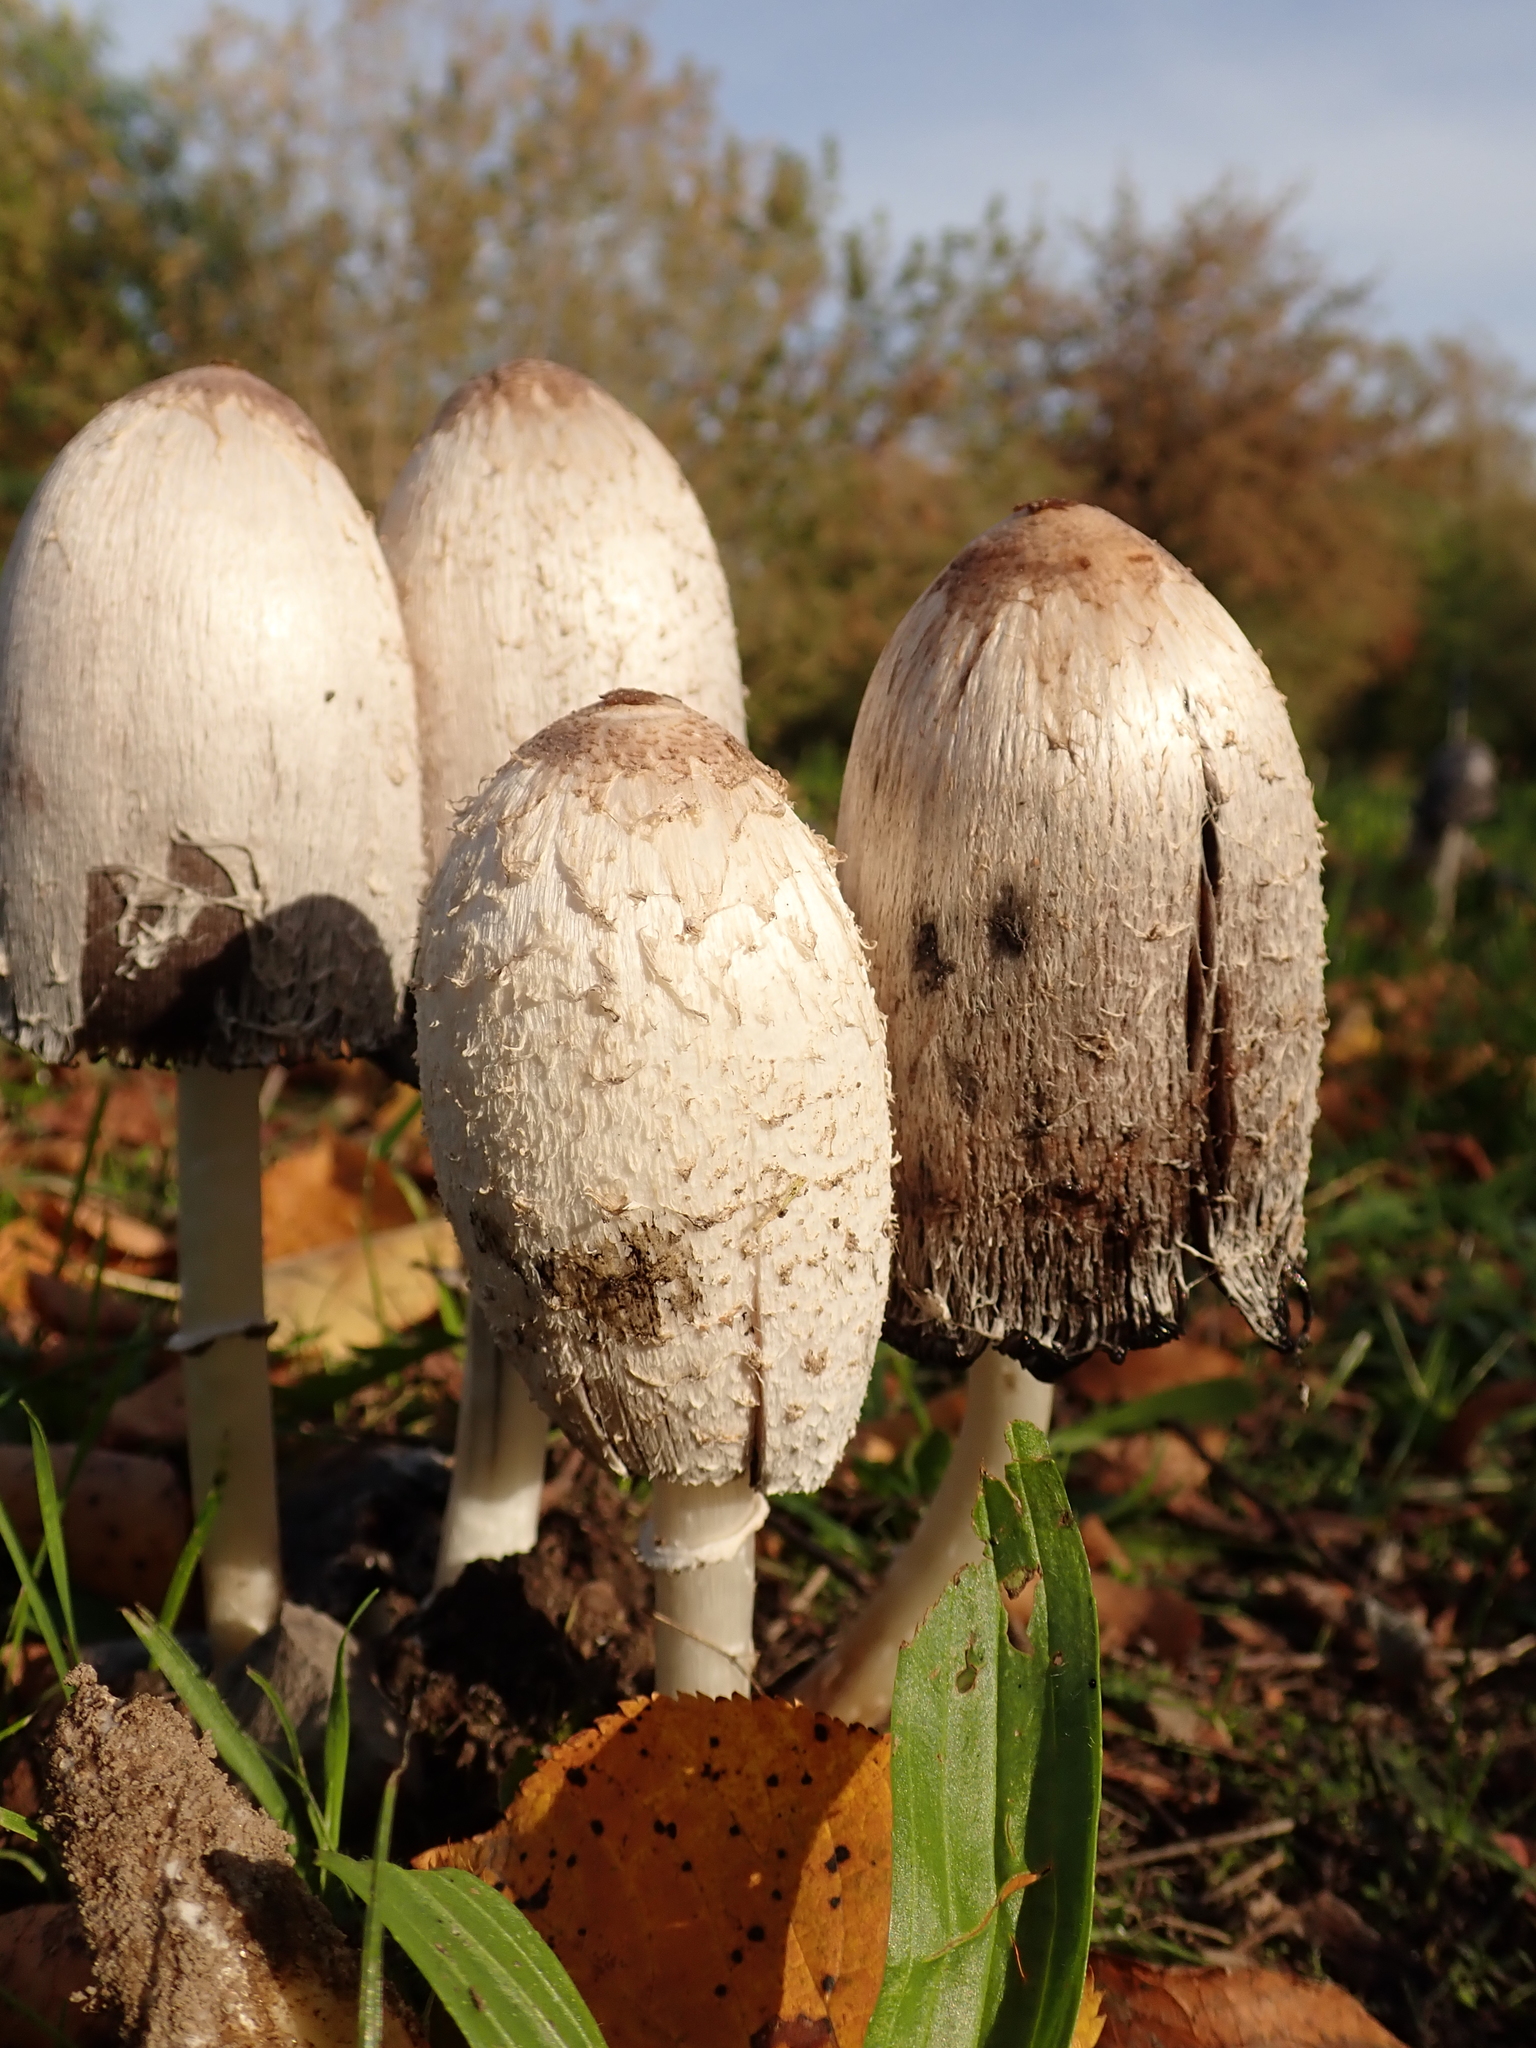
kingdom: Fungi
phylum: Basidiomycota
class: Agaricomycetes
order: Agaricales
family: Agaricaceae
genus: Coprinus
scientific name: Coprinus comatus
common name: Lawyer's wig
